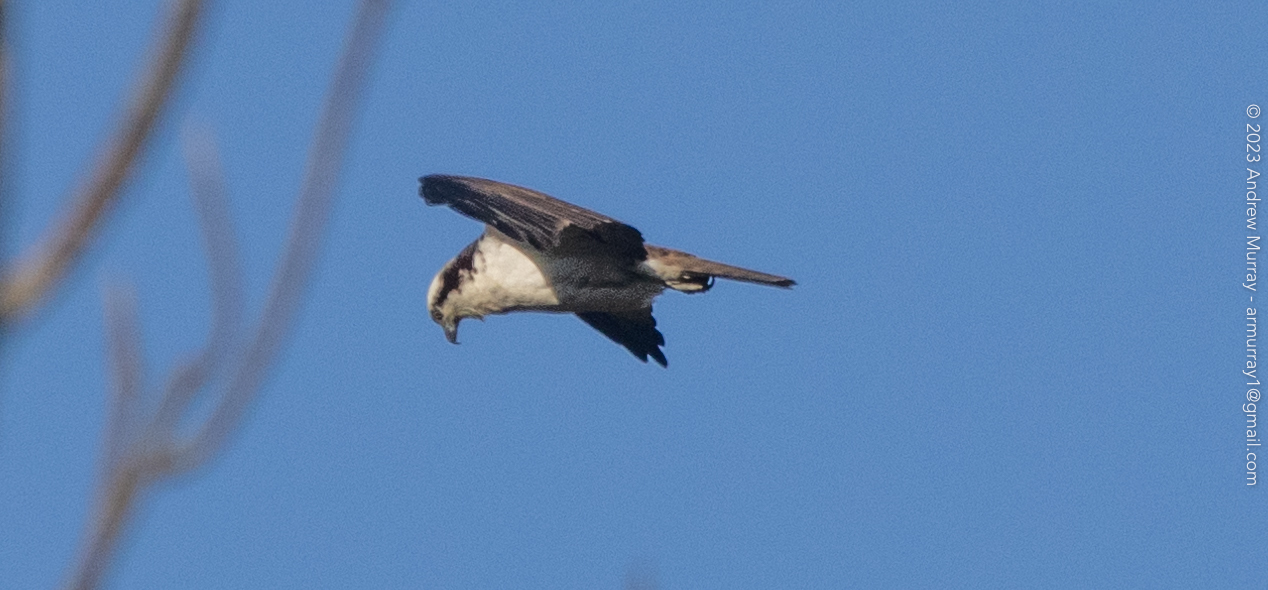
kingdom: Animalia
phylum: Chordata
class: Aves
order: Accipitriformes
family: Pandionidae
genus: Pandion
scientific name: Pandion haliaetus
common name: Osprey
